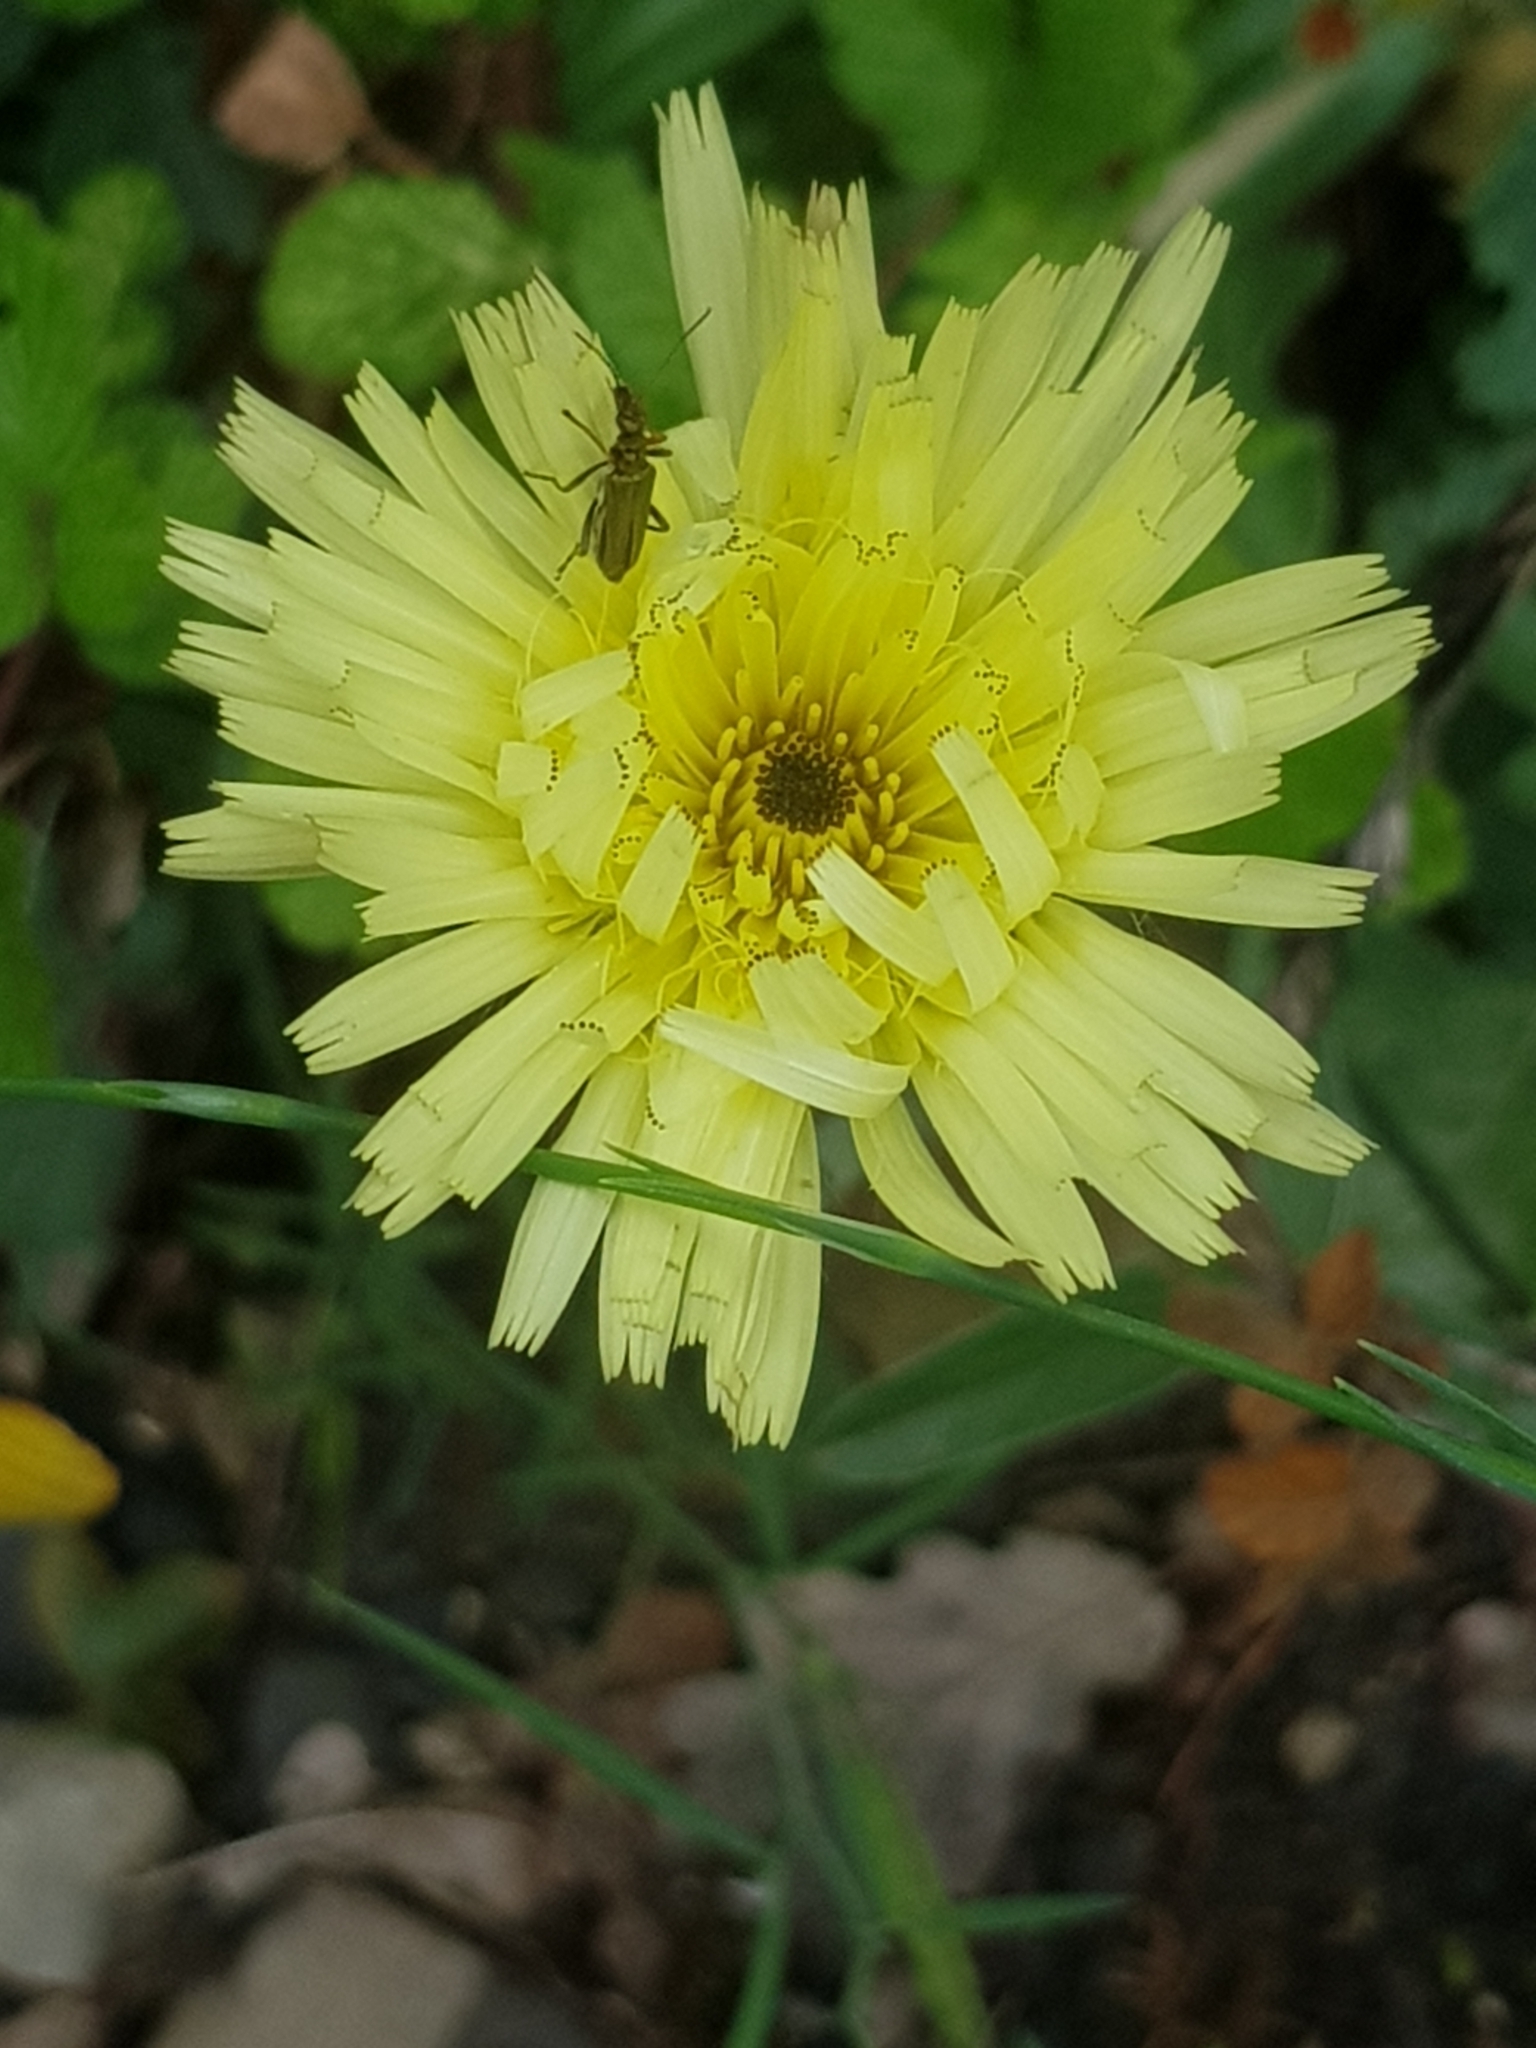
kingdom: Plantae
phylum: Tracheophyta
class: Magnoliopsida
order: Asterales
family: Asteraceae
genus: Urospermum
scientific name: Urospermum dalechampii
